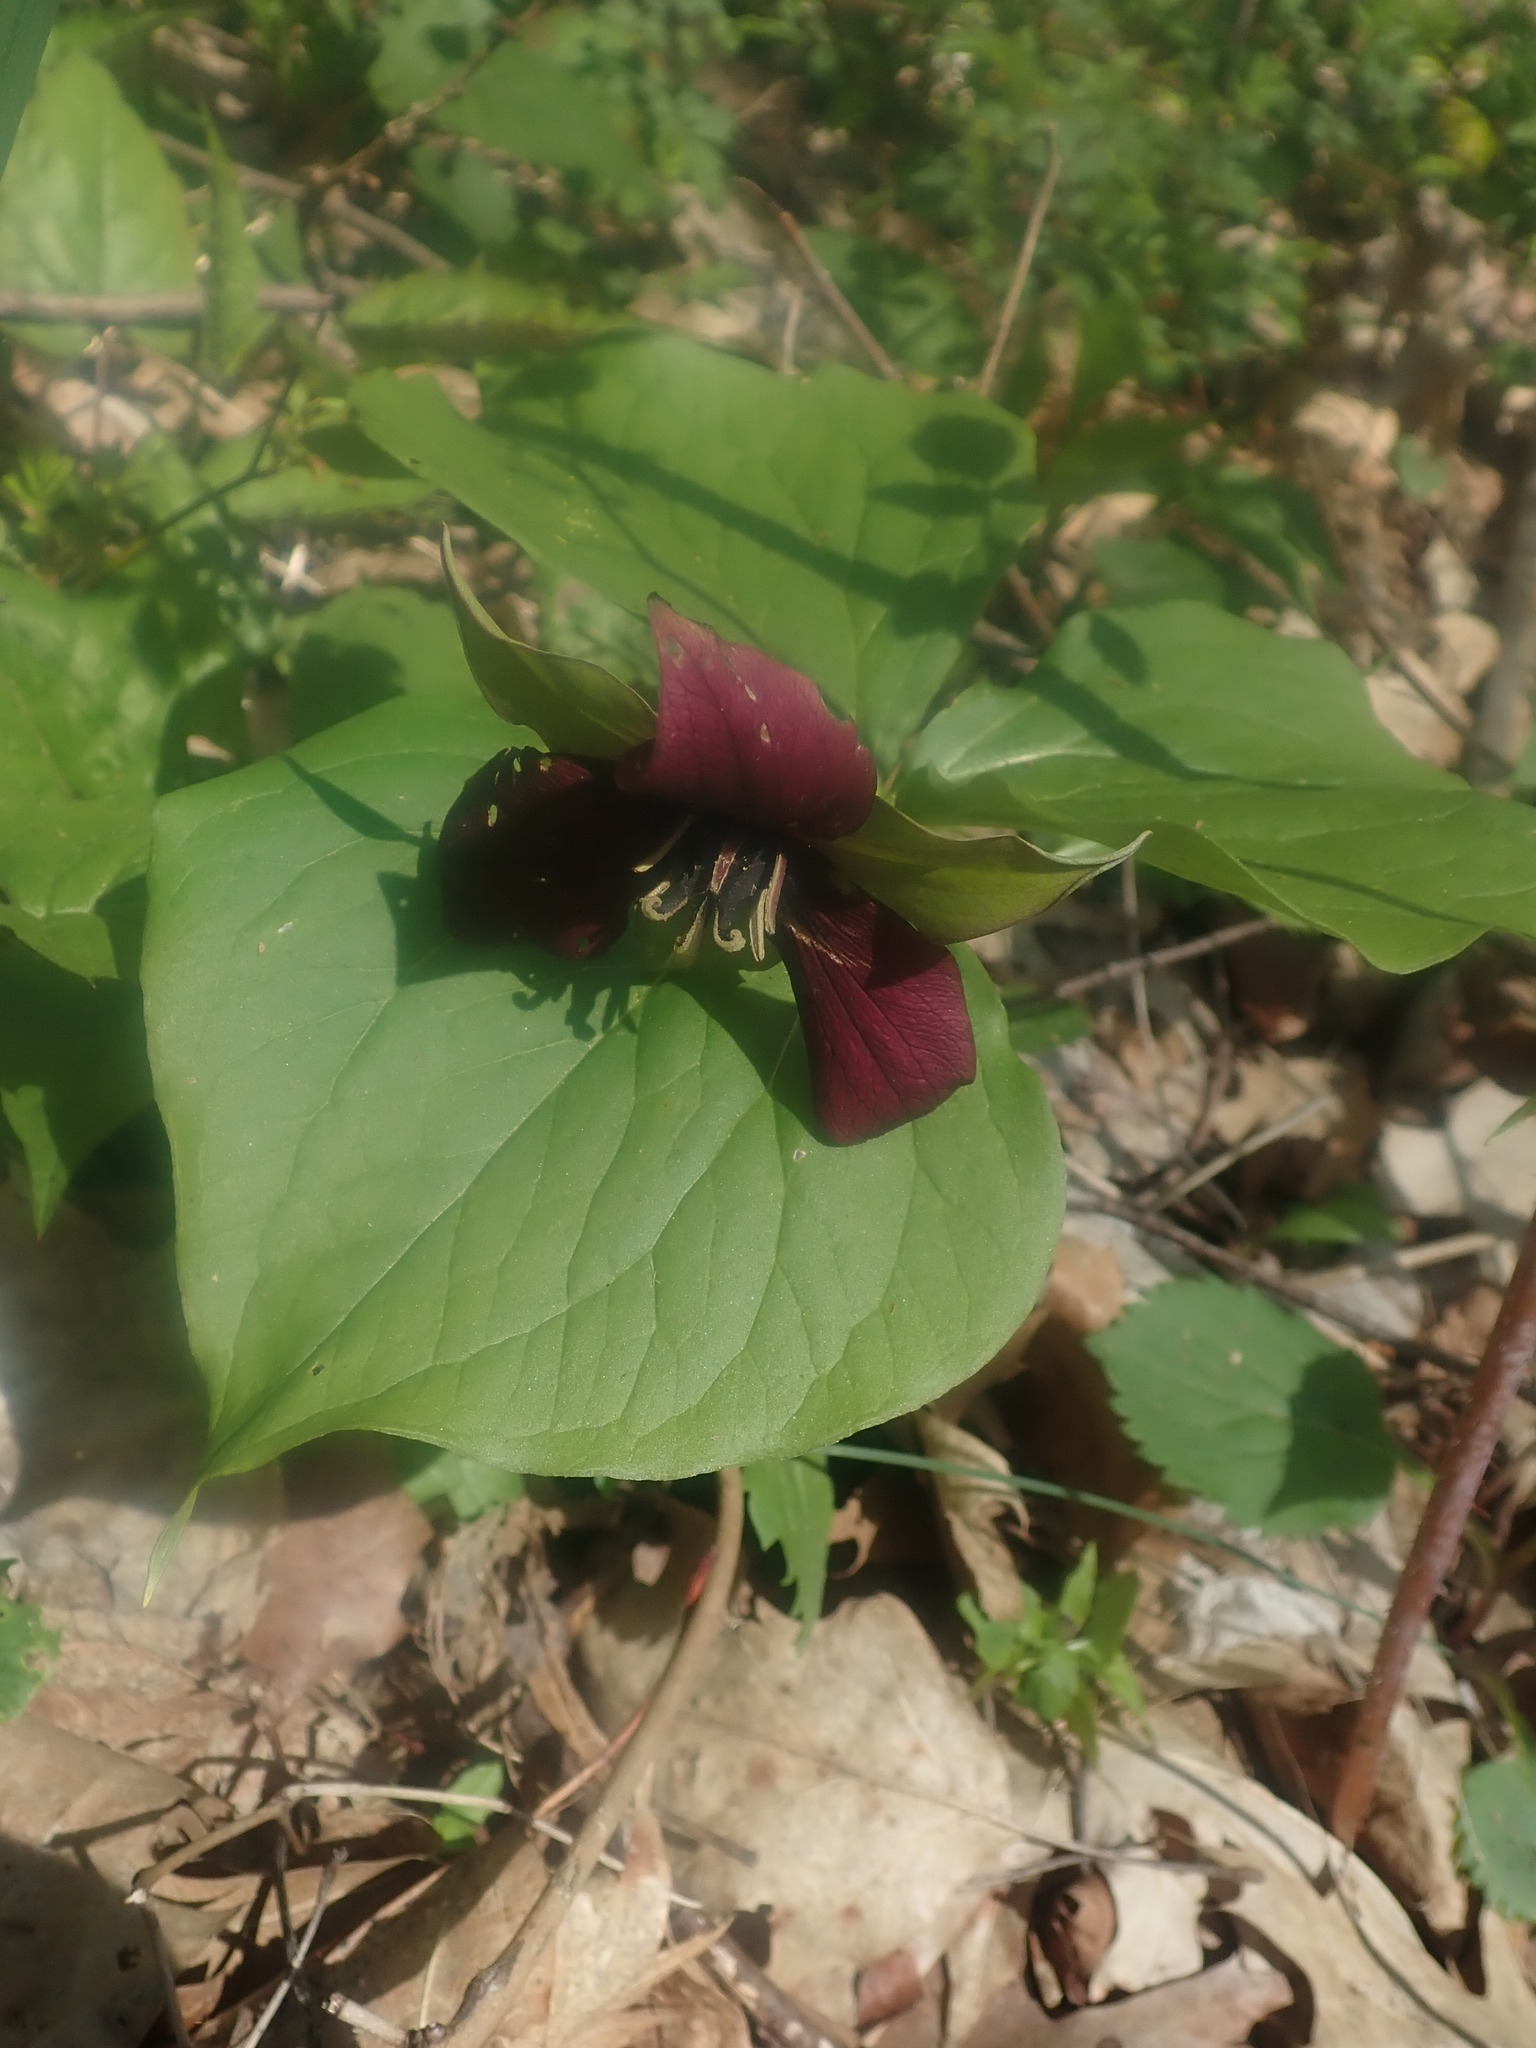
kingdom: Plantae
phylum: Tracheophyta
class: Liliopsida
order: Liliales
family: Melanthiaceae
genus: Trillium
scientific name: Trillium erectum
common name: Purple trillium
